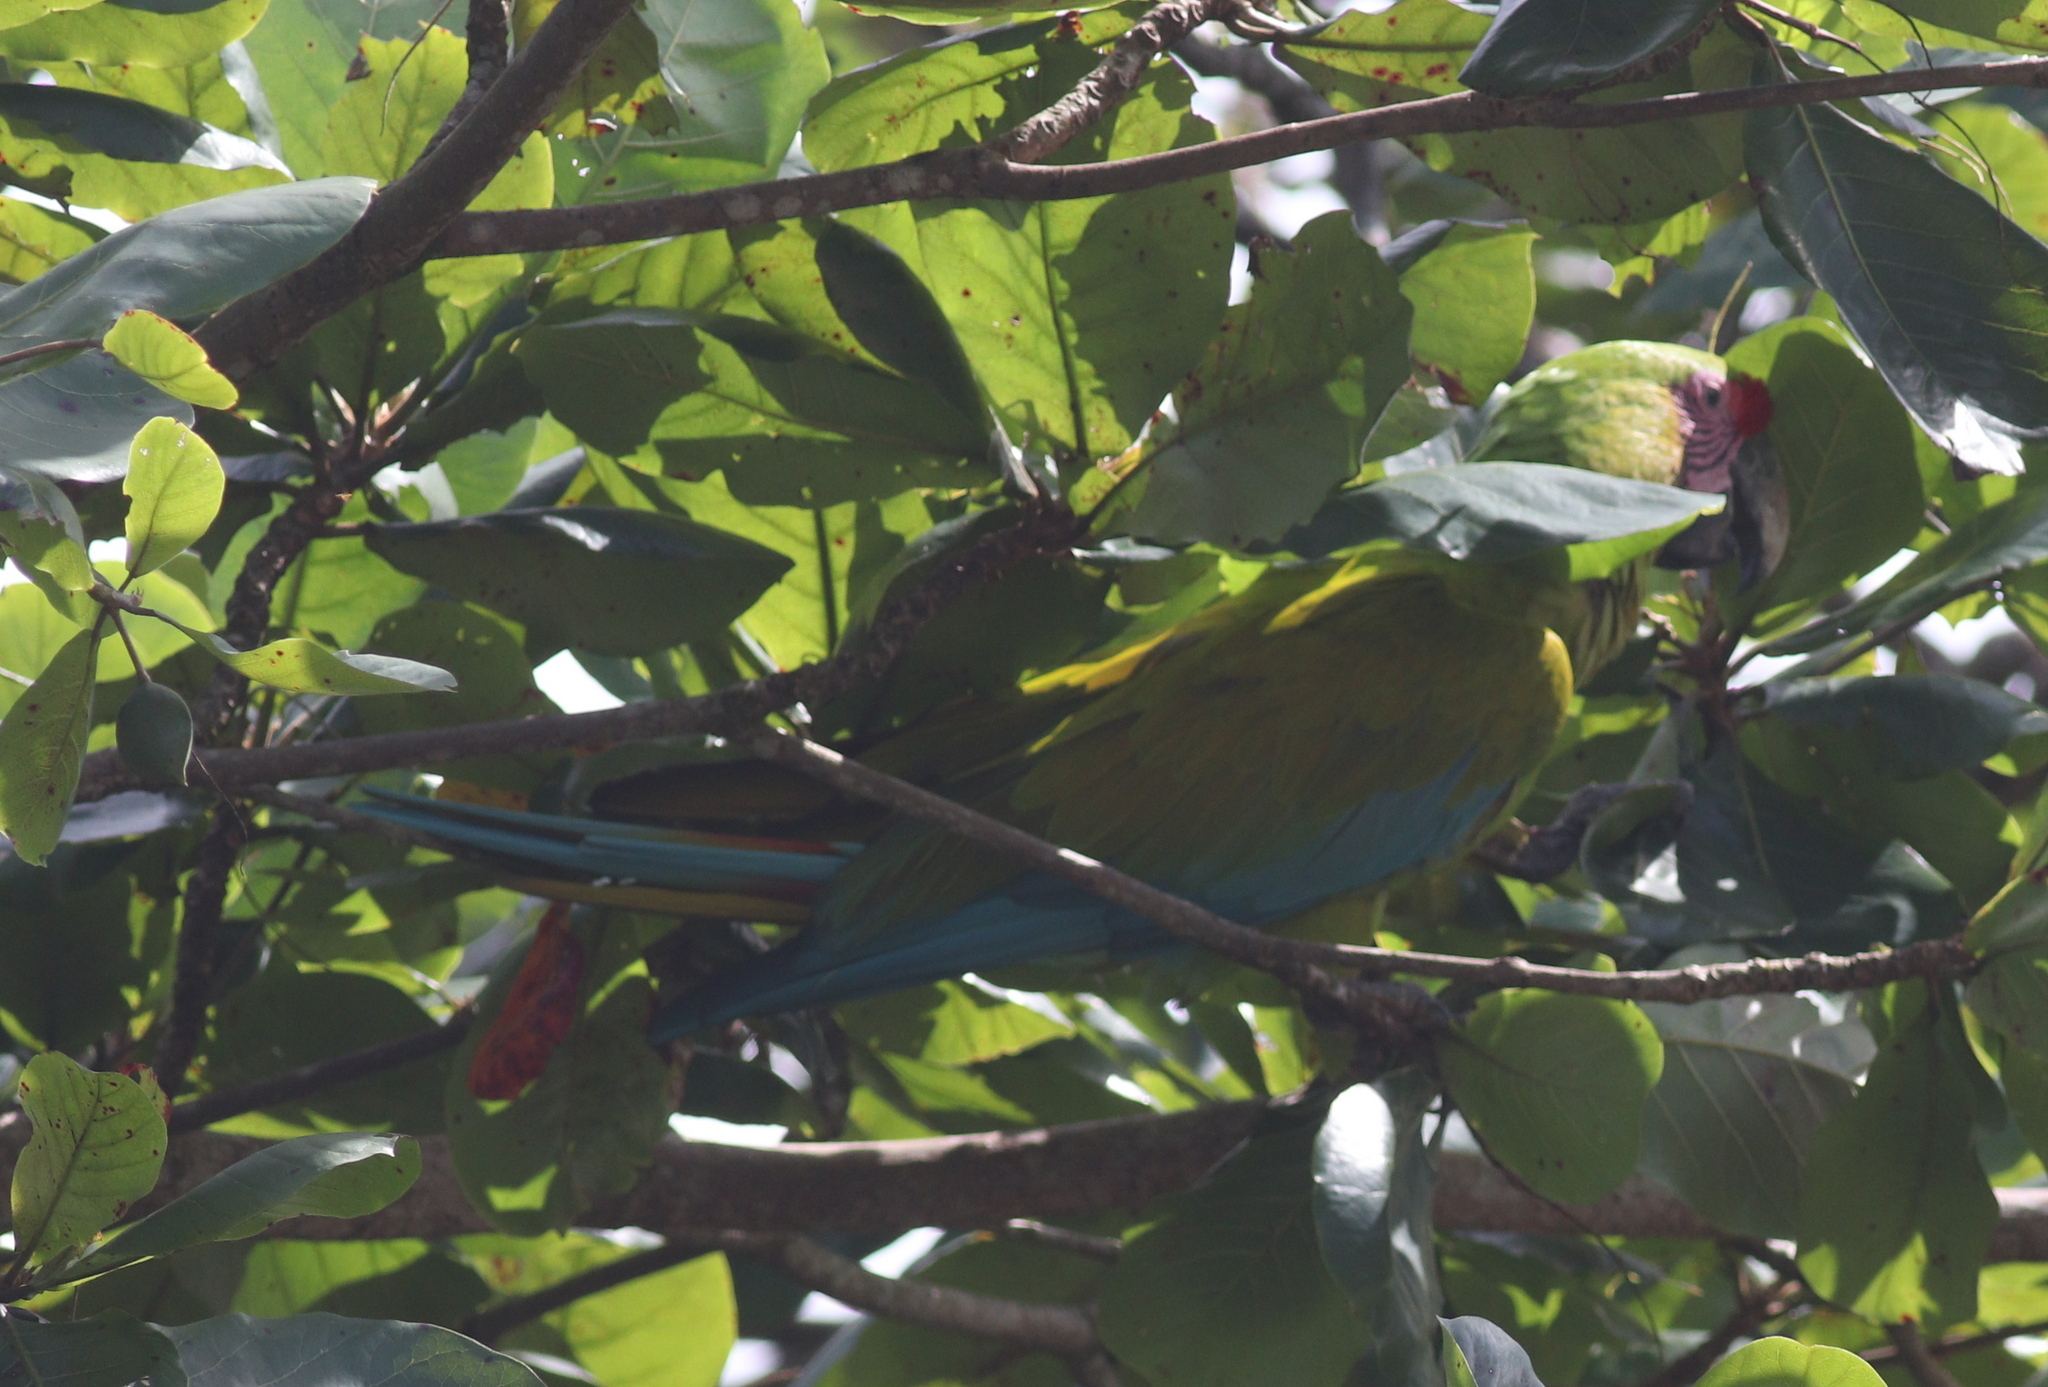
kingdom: Animalia
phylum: Chordata
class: Aves
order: Psittaciformes
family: Psittacidae
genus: Ara
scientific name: Ara ambiguus
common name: Great green macaw
